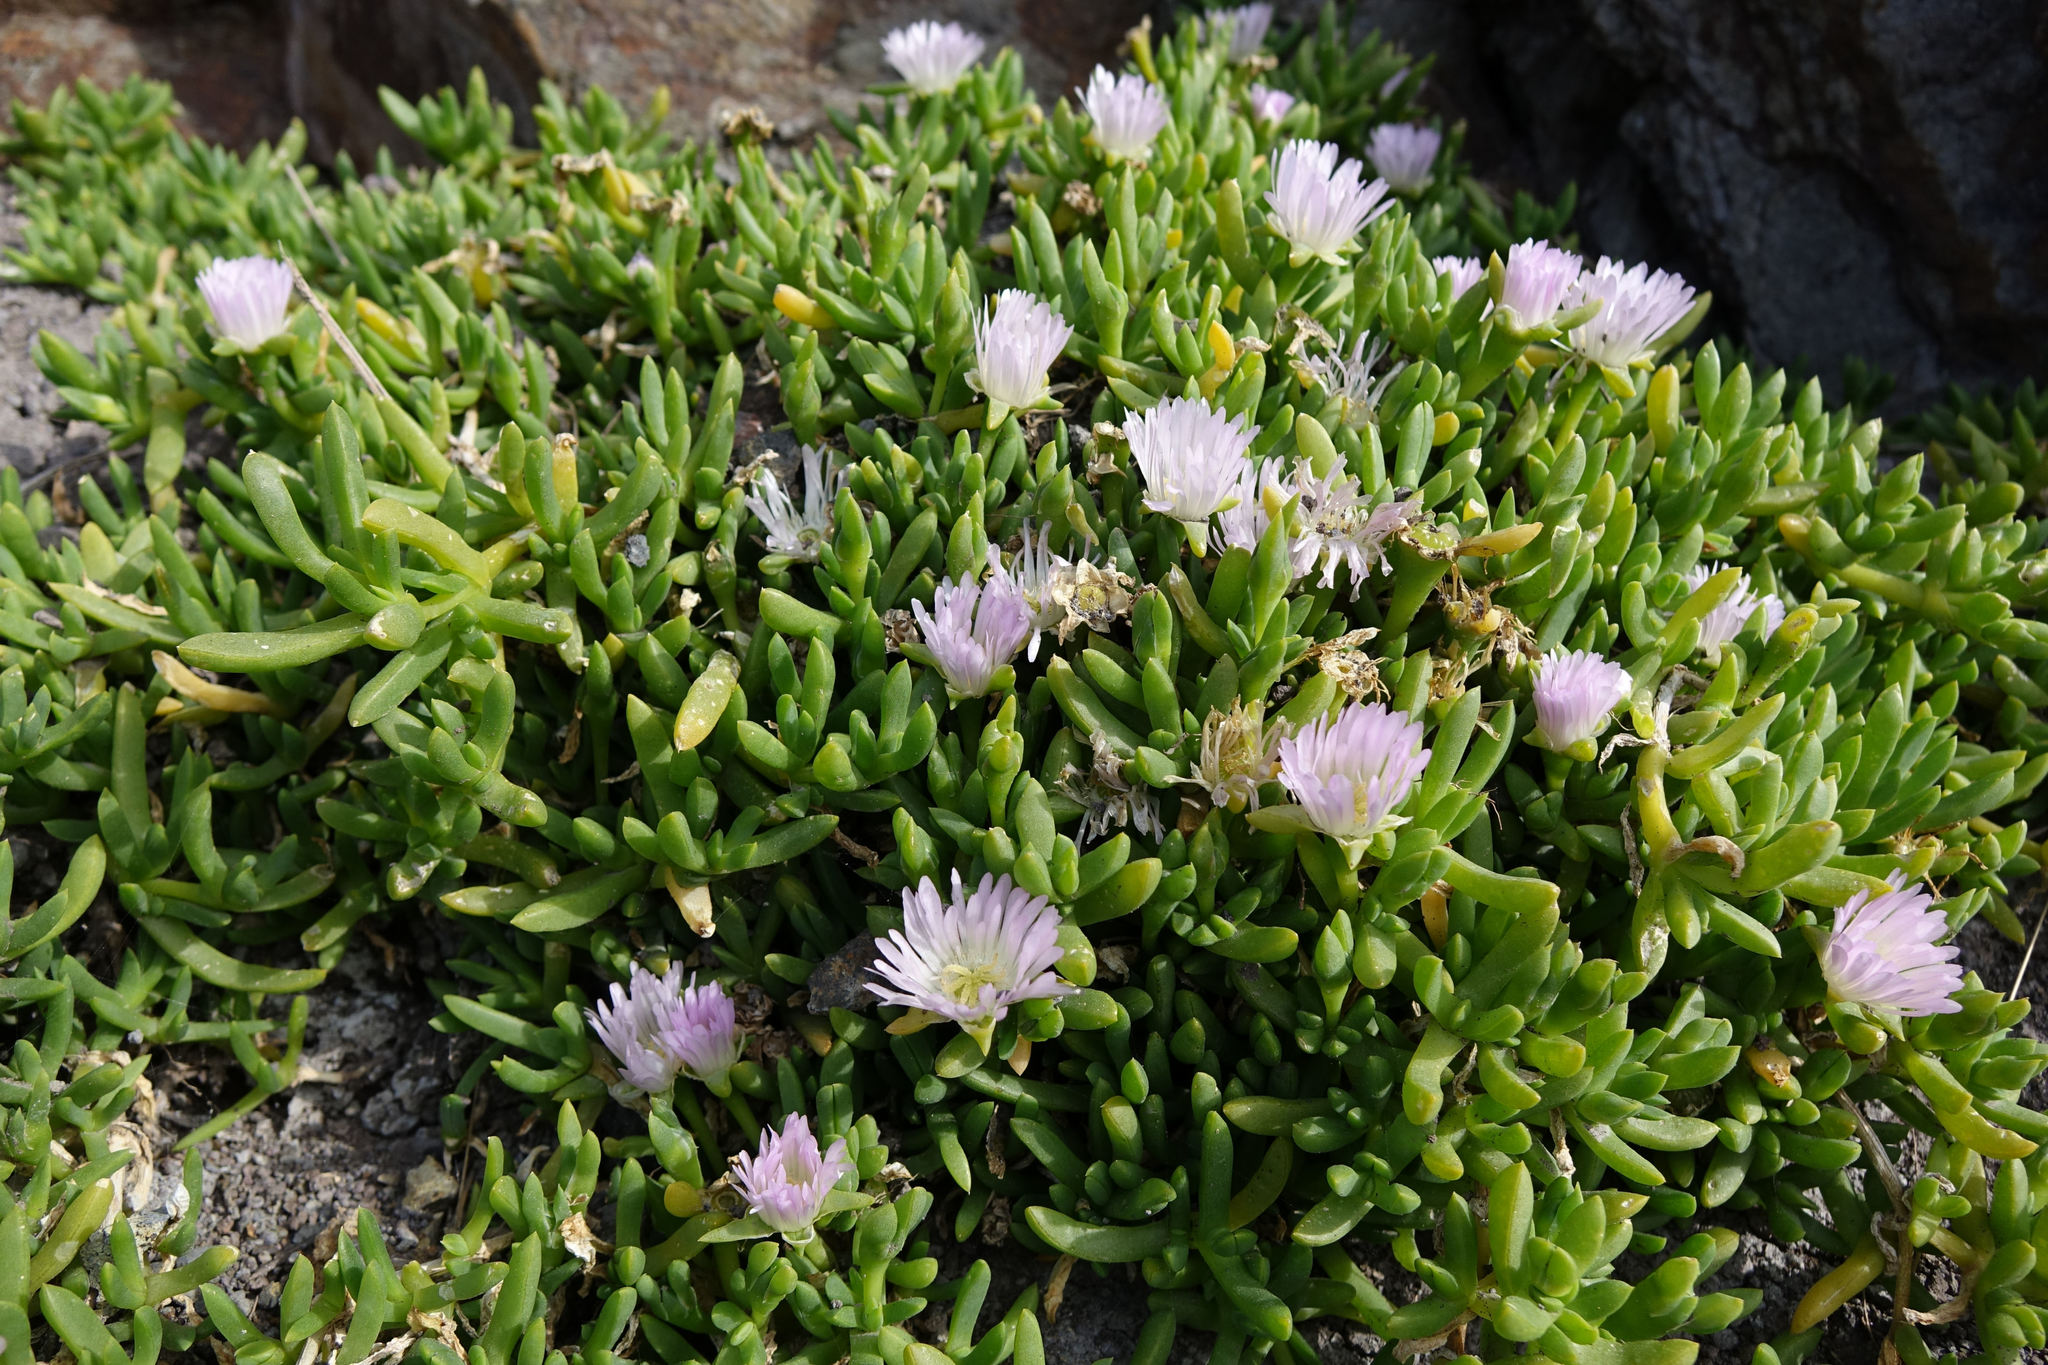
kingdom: Plantae
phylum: Tracheophyta
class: Magnoliopsida
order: Caryophyllales
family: Aizoaceae
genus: Disphyma
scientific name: Disphyma australe
